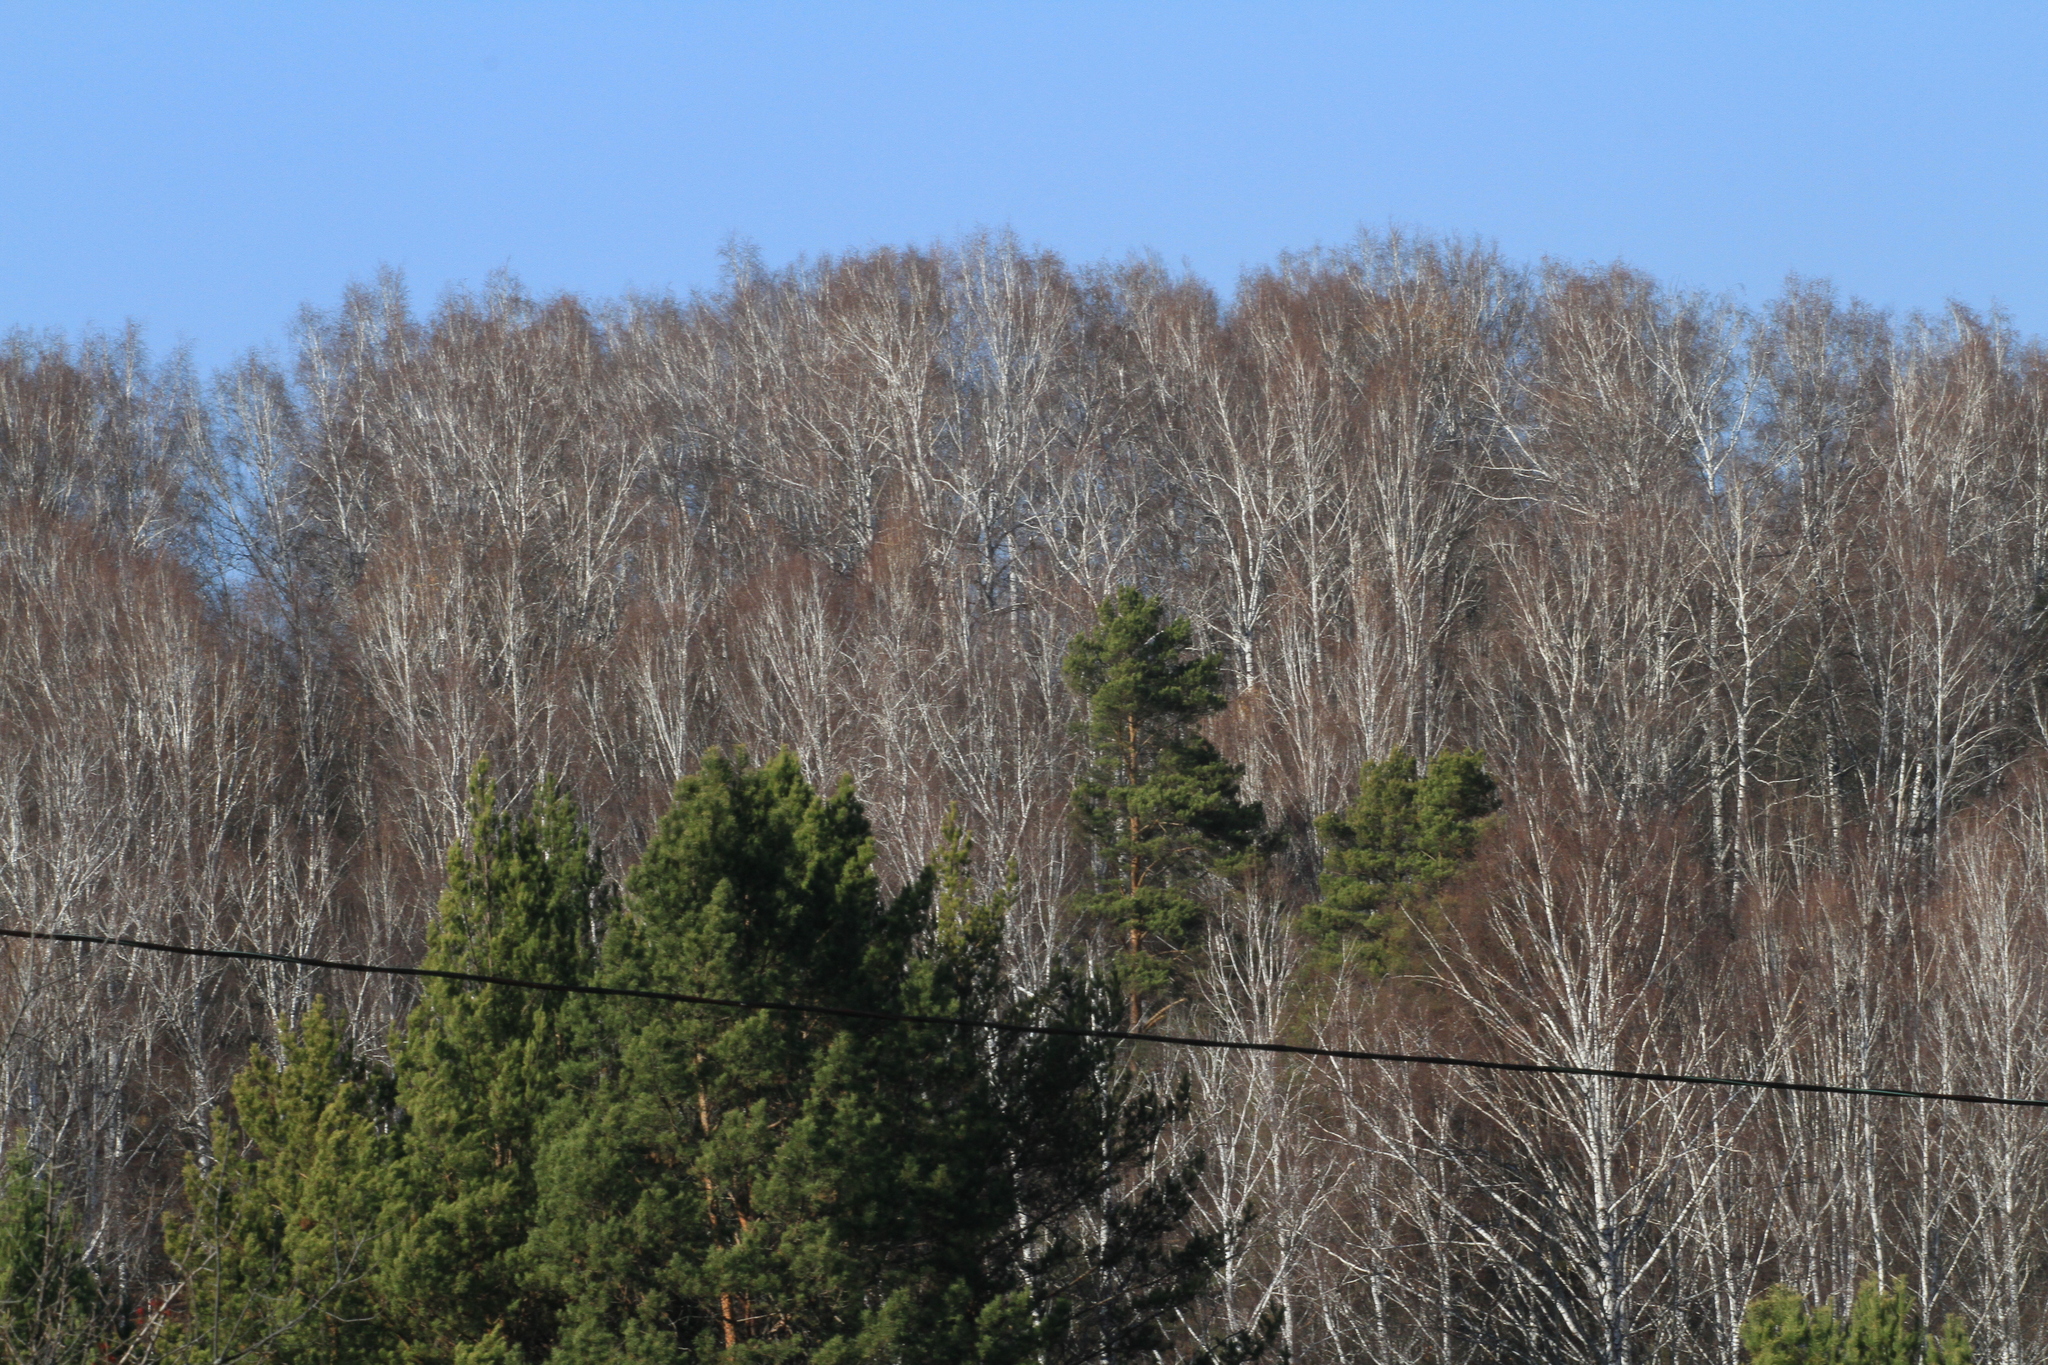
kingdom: Plantae
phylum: Tracheophyta
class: Pinopsida
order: Pinales
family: Pinaceae
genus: Pinus
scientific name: Pinus sylvestris
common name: Scots pine
